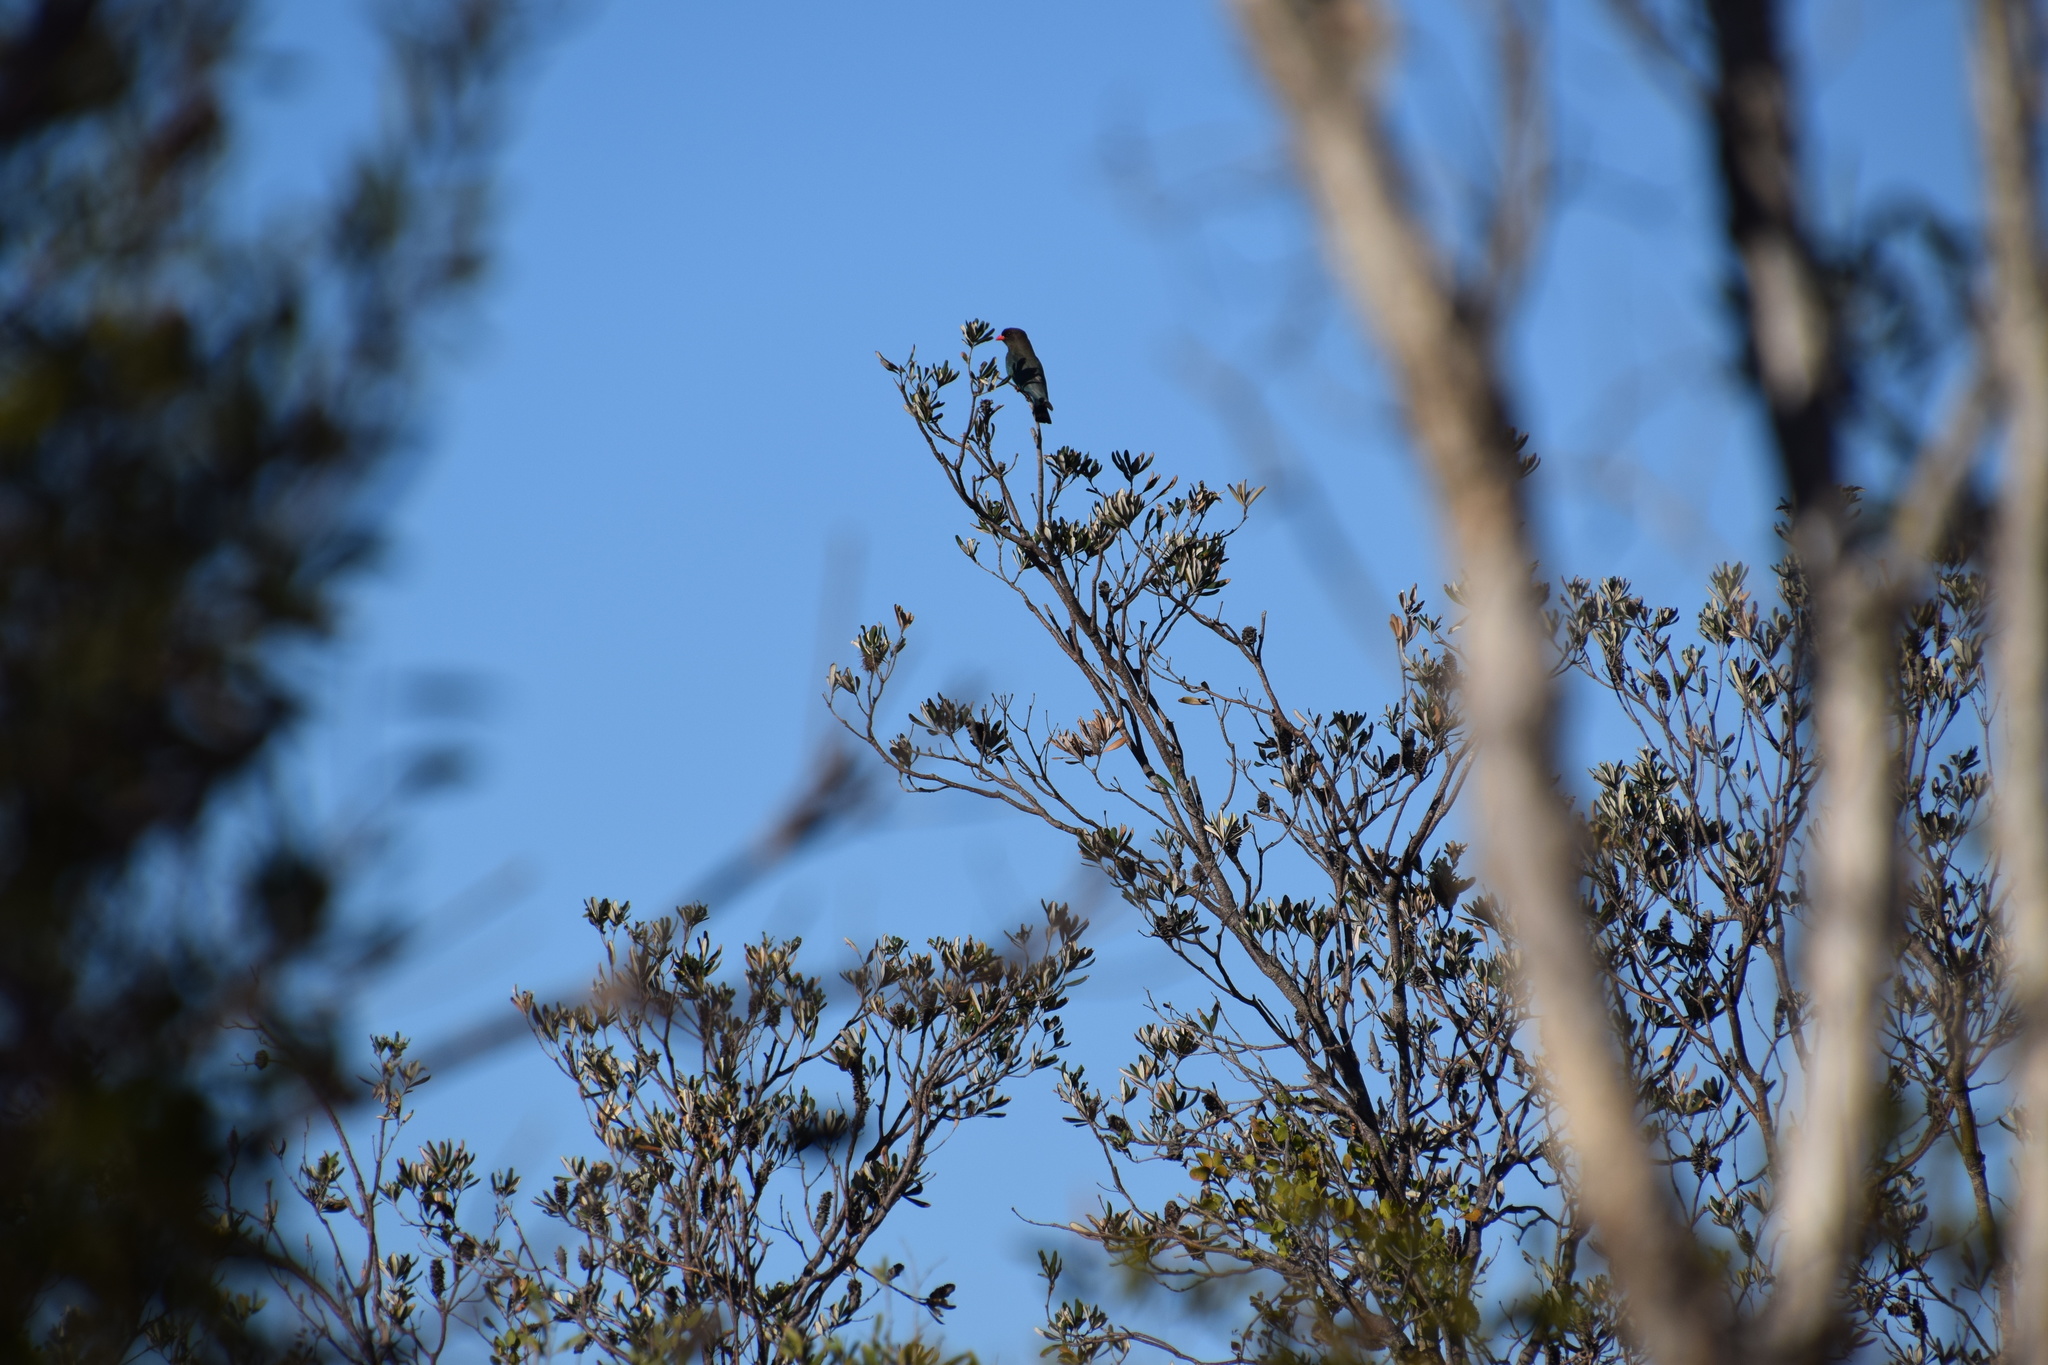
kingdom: Animalia
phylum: Chordata
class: Aves
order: Coraciiformes
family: Coraciidae
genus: Eurystomus
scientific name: Eurystomus orientalis
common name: Oriental dollarbird
